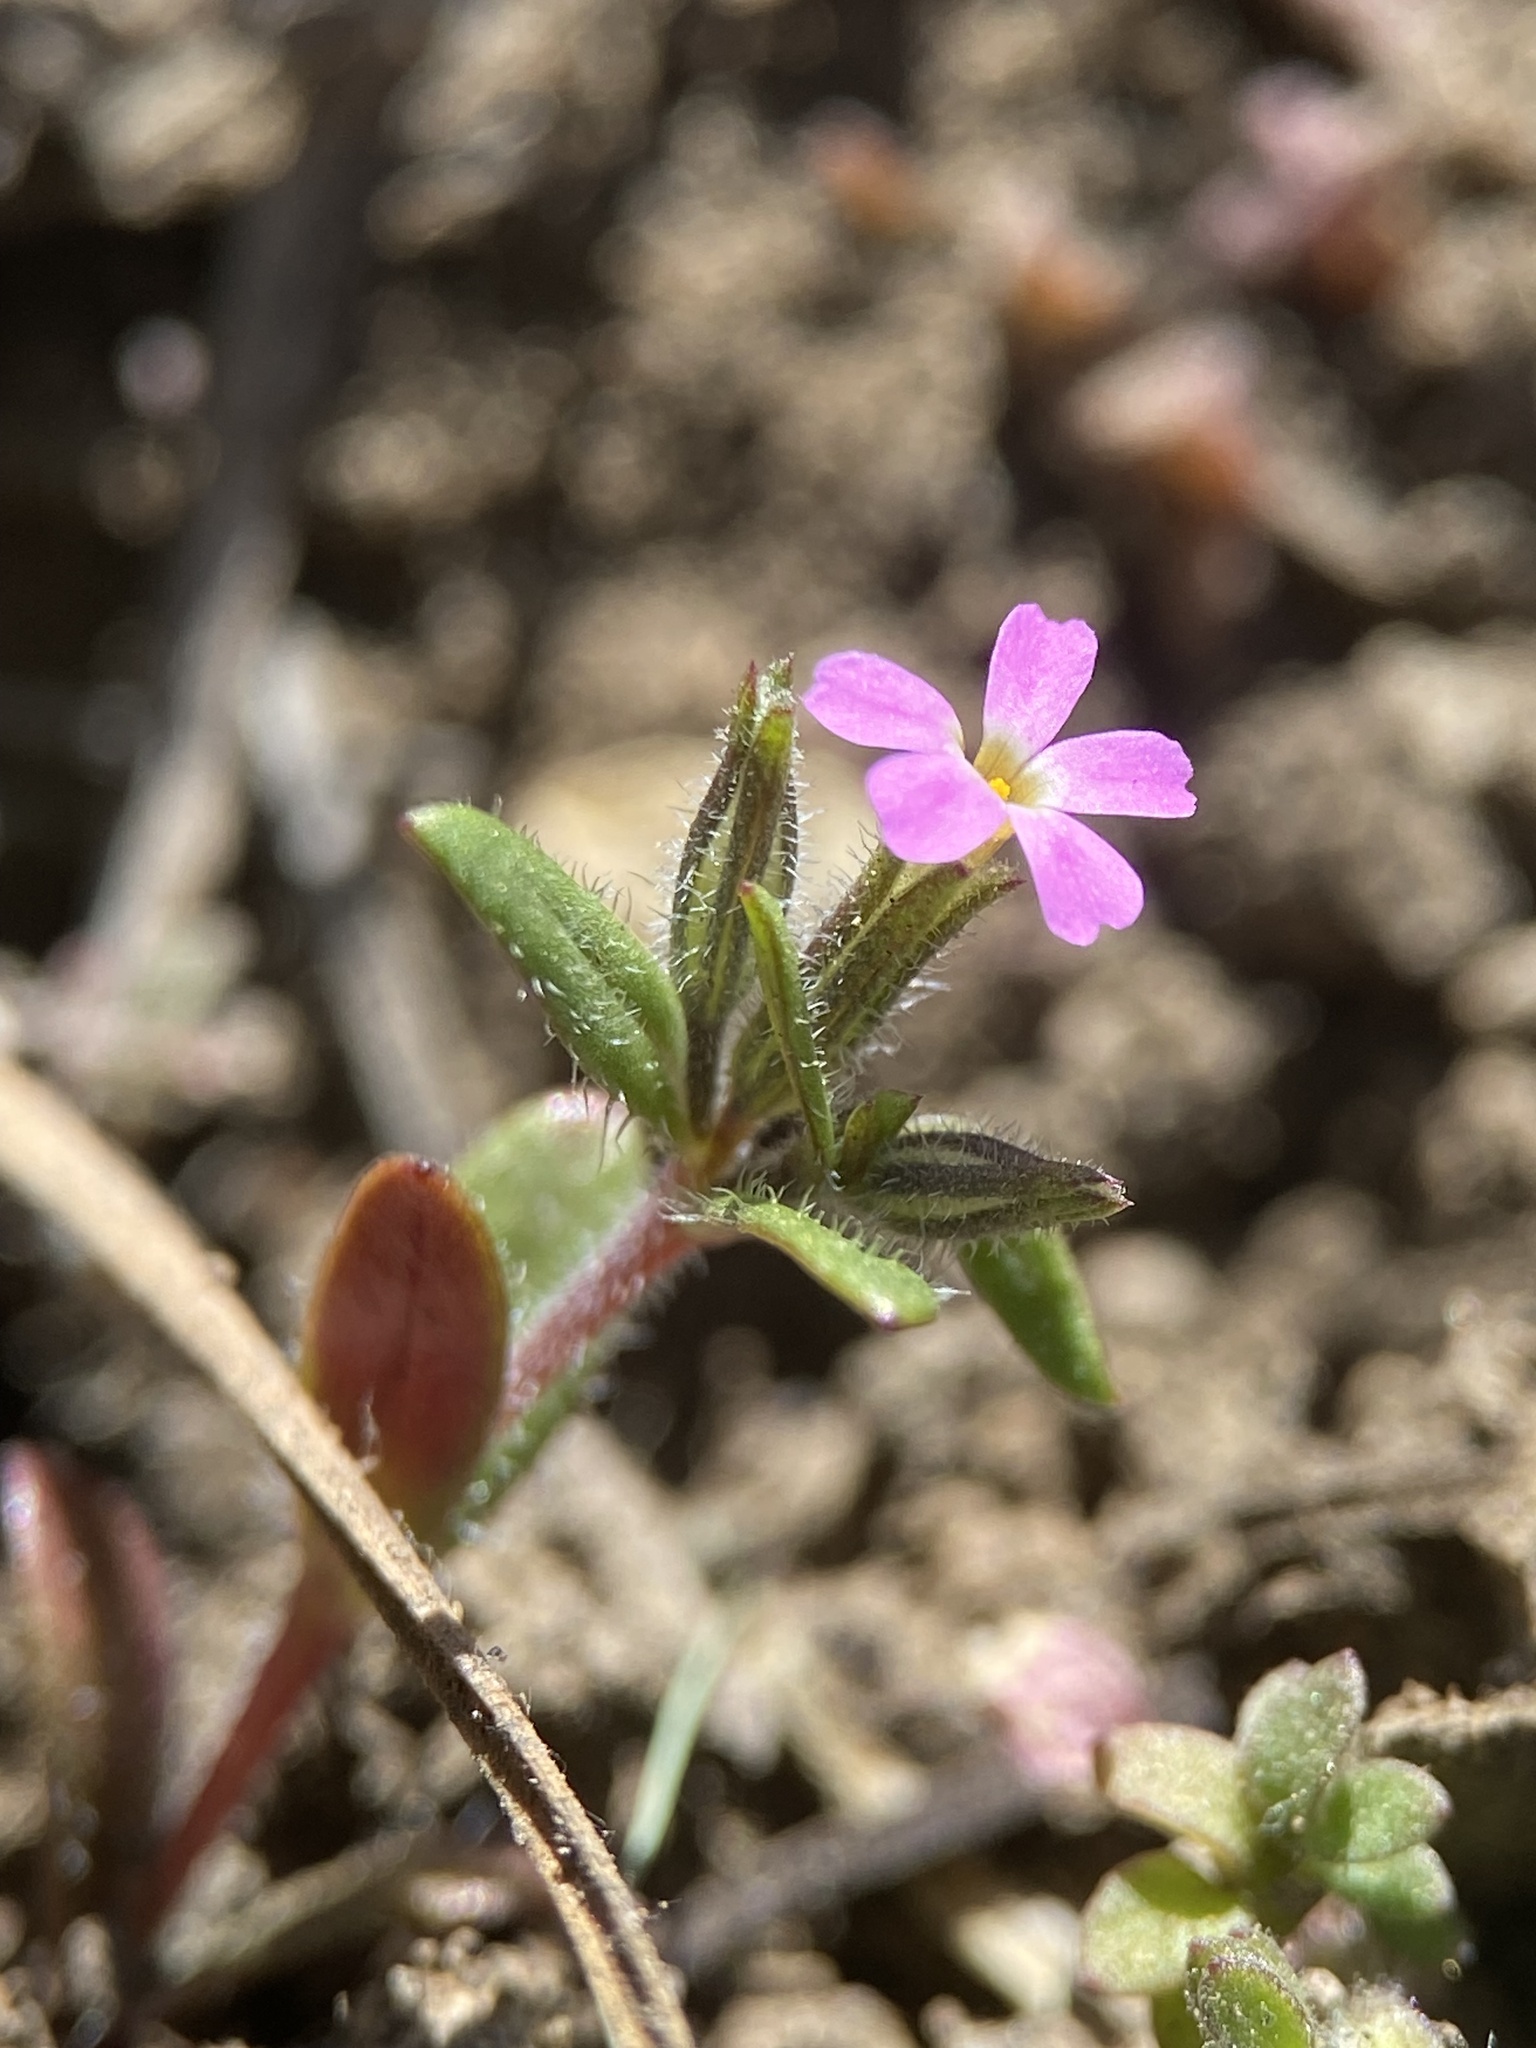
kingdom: Plantae
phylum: Tracheophyta
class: Magnoliopsida
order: Ericales
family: Polemoniaceae
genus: Phlox
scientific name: Phlox gracilis
